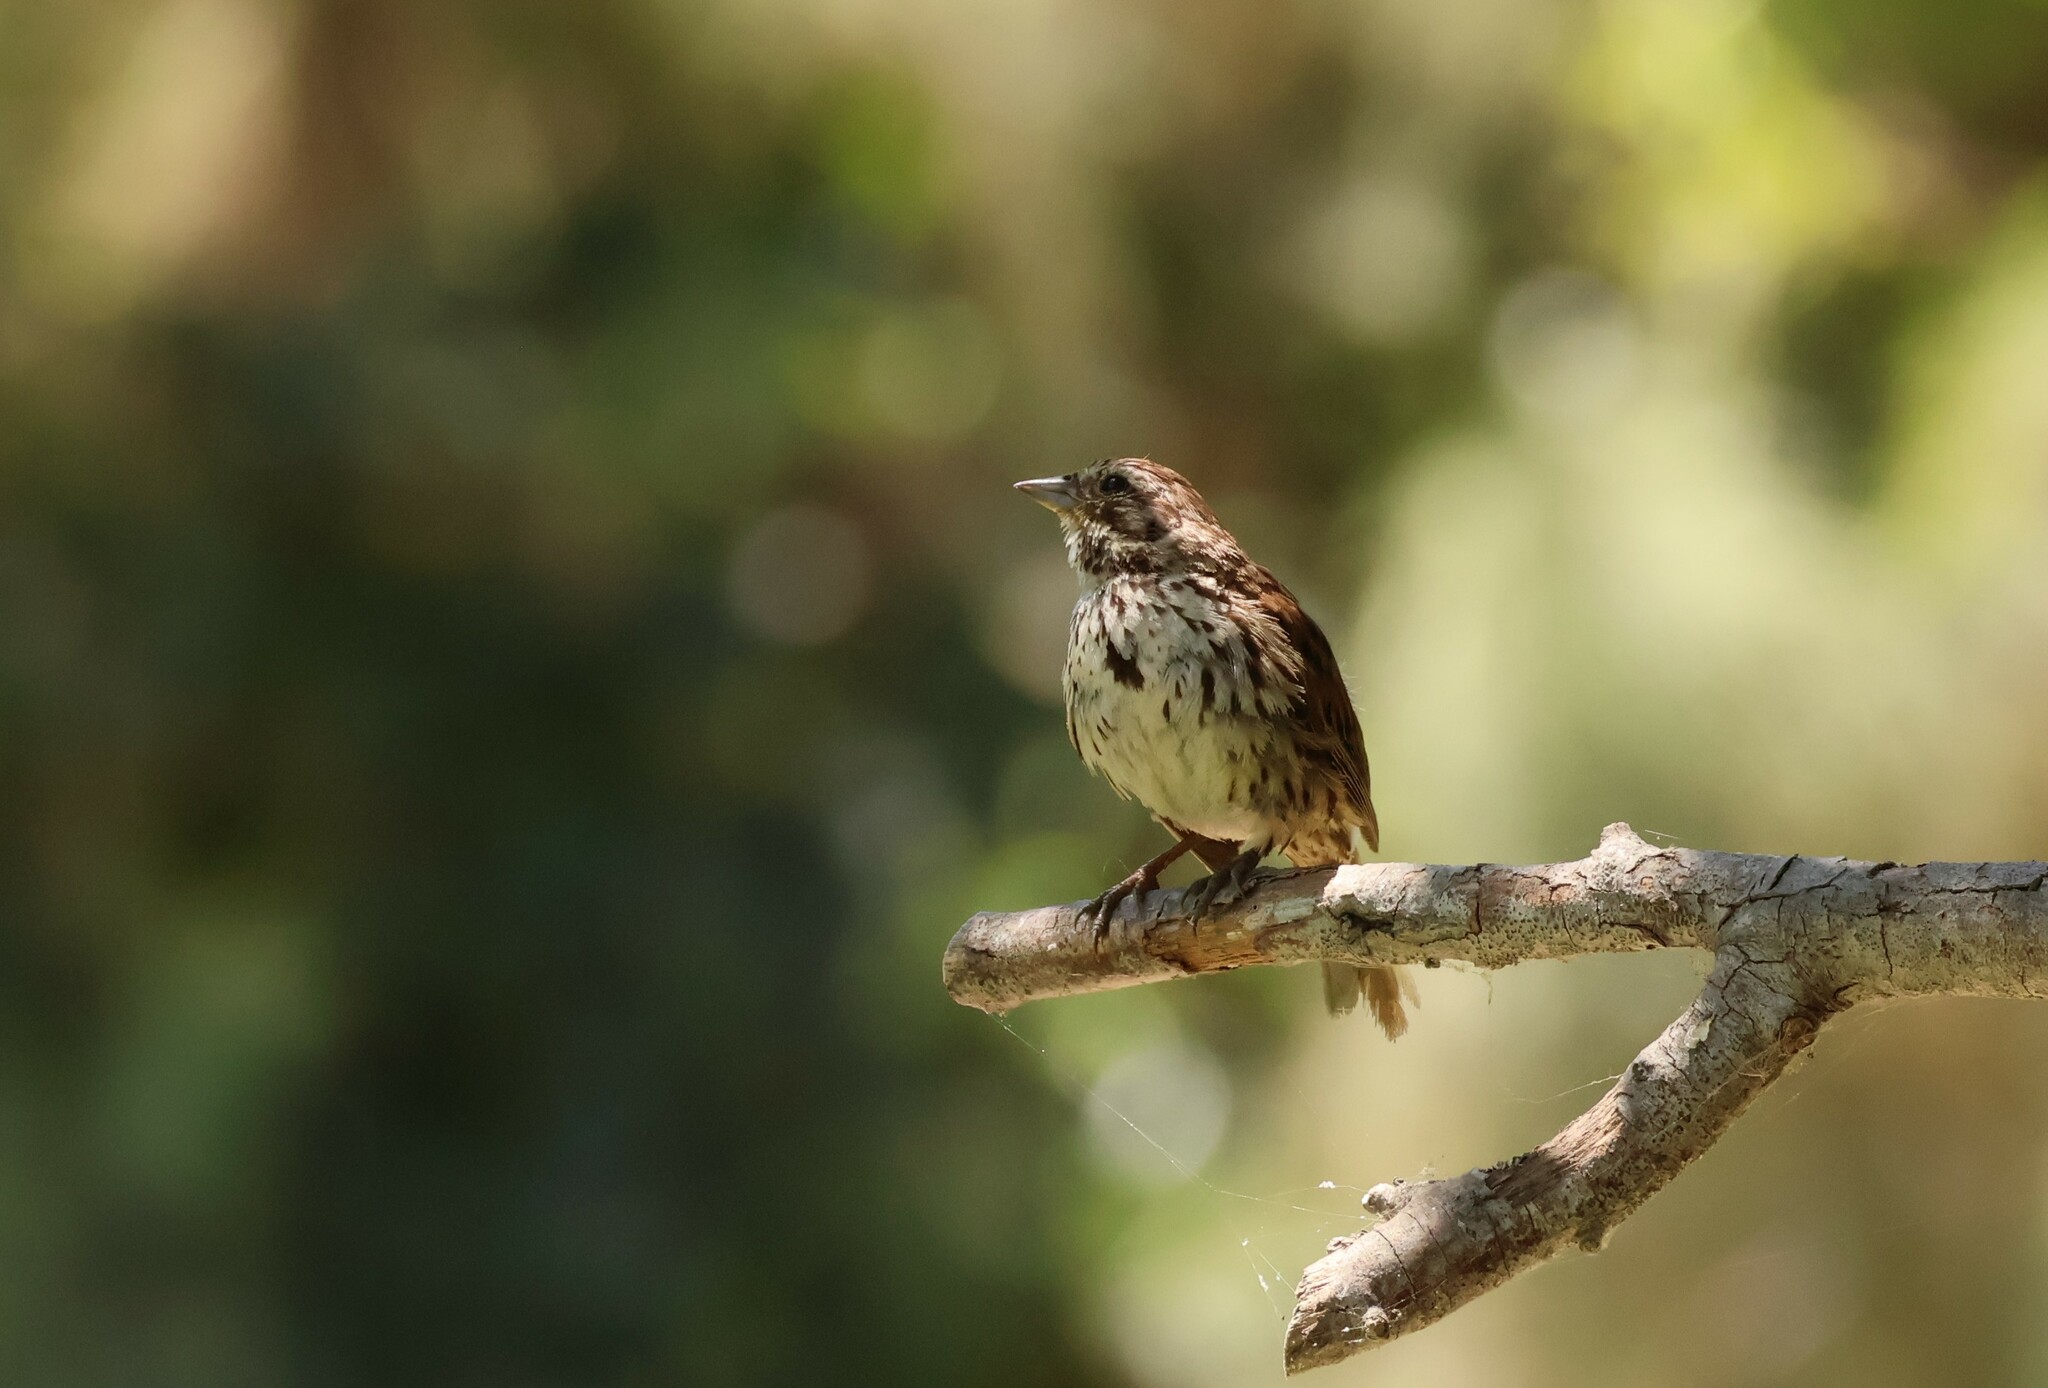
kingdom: Animalia
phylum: Chordata
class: Aves
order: Passeriformes
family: Passerellidae
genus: Melospiza
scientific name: Melospiza melodia
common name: Song sparrow
